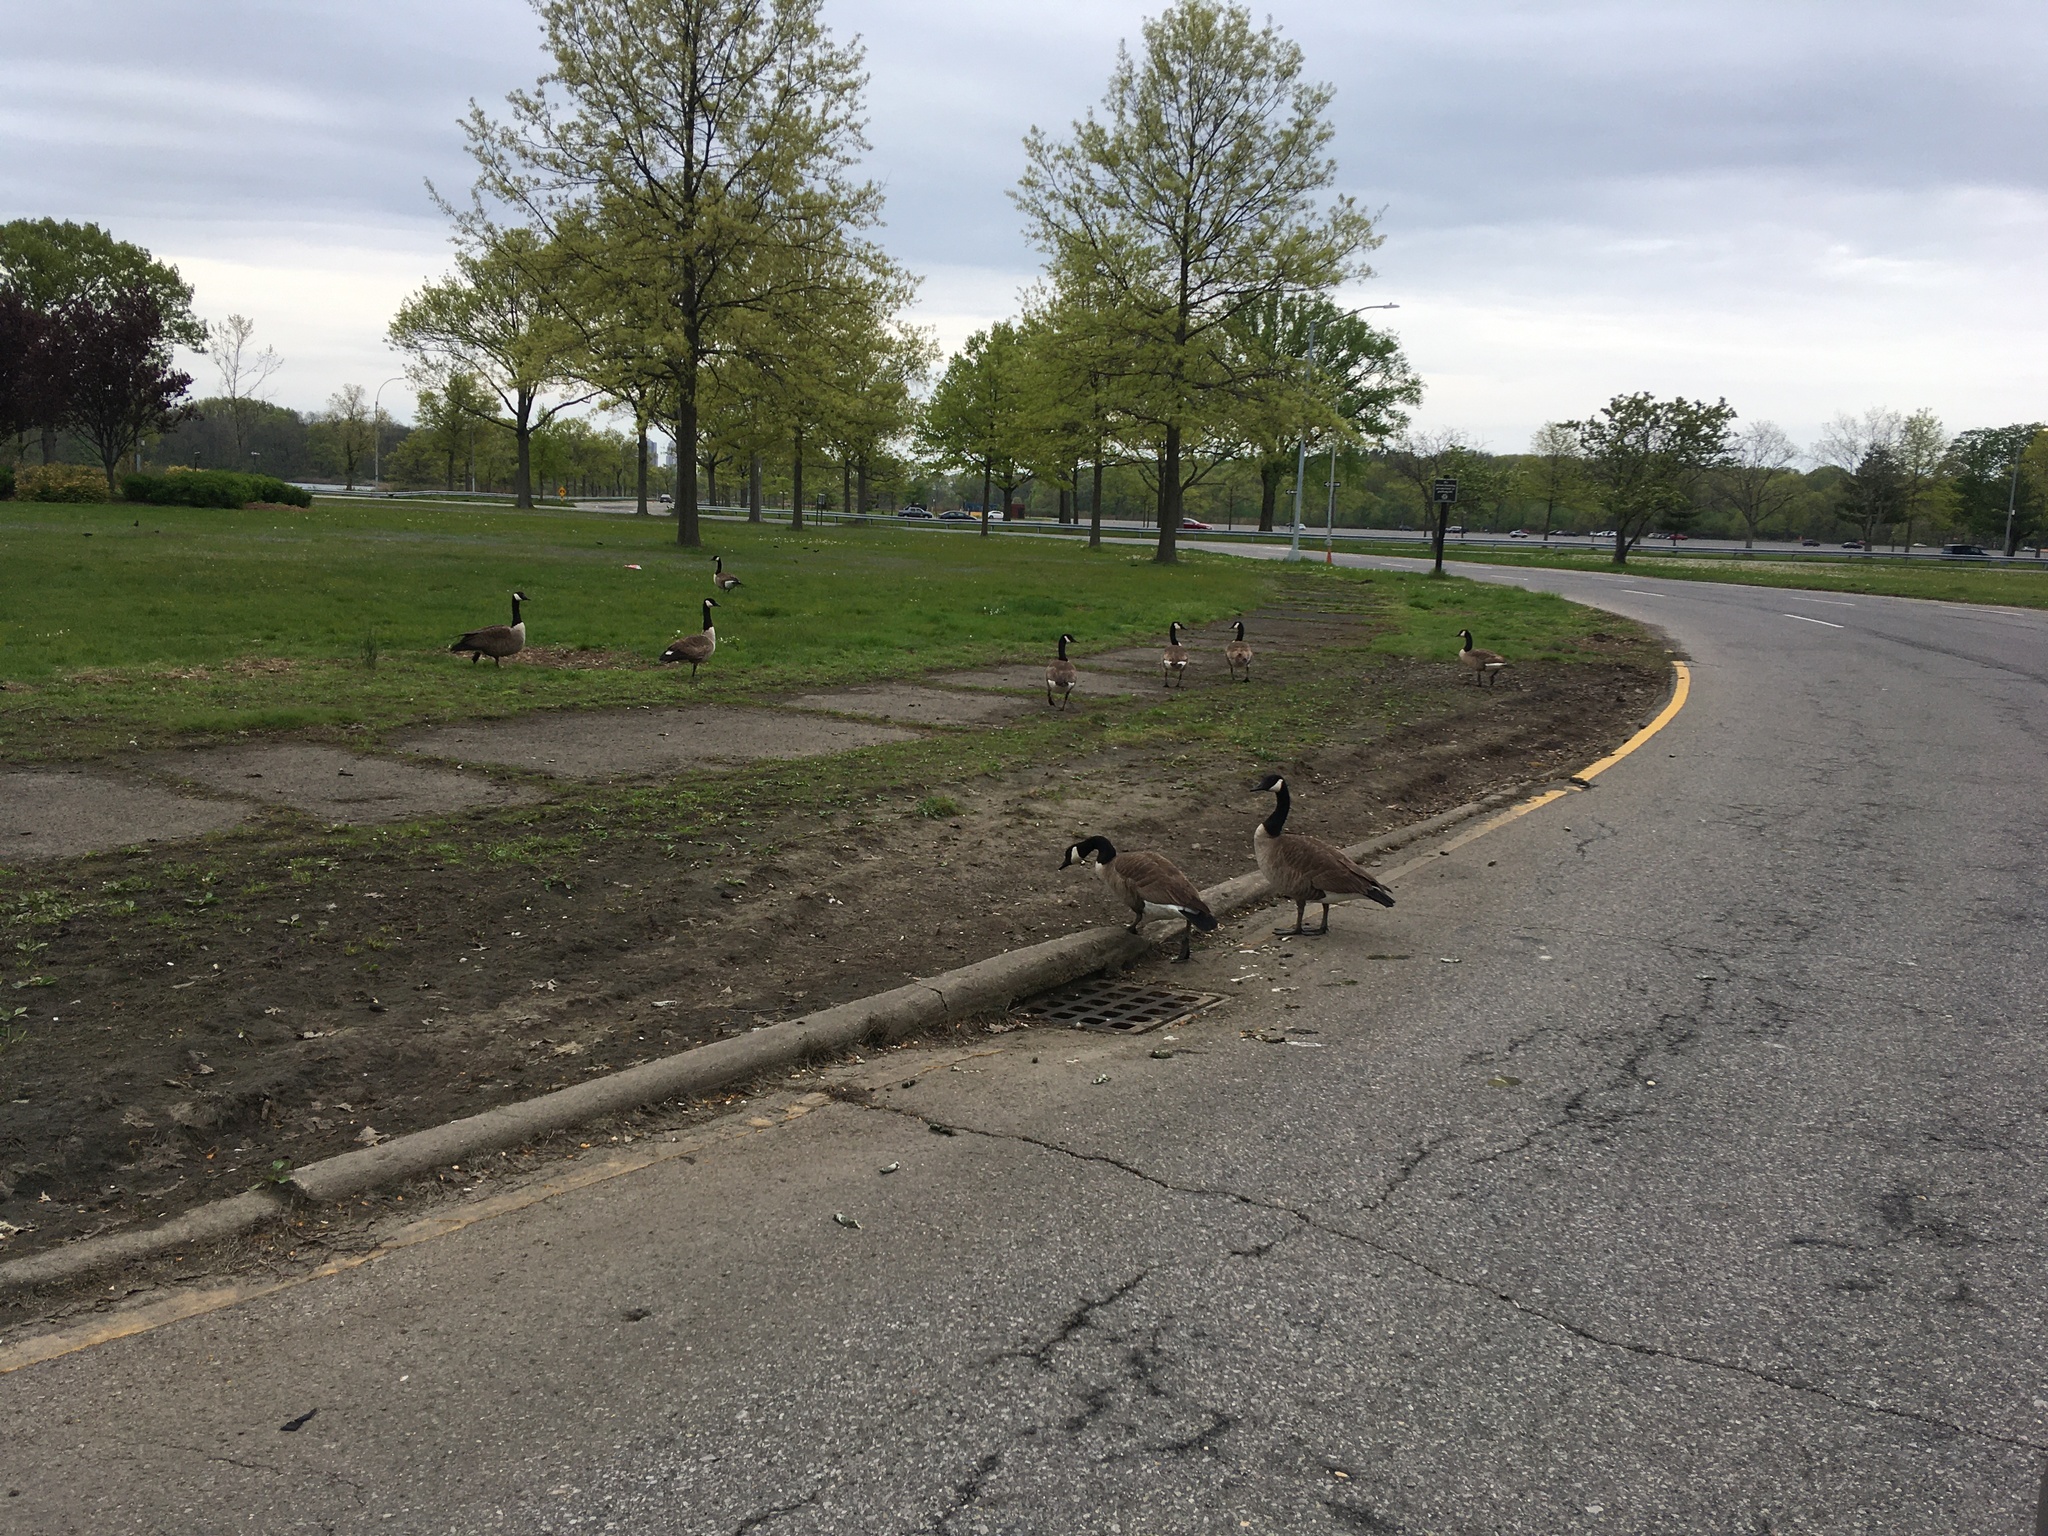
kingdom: Animalia
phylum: Chordata
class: Aves
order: Anseriformes
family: Anatidae
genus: Branta
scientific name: Branta canadensis
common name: Canada goose
